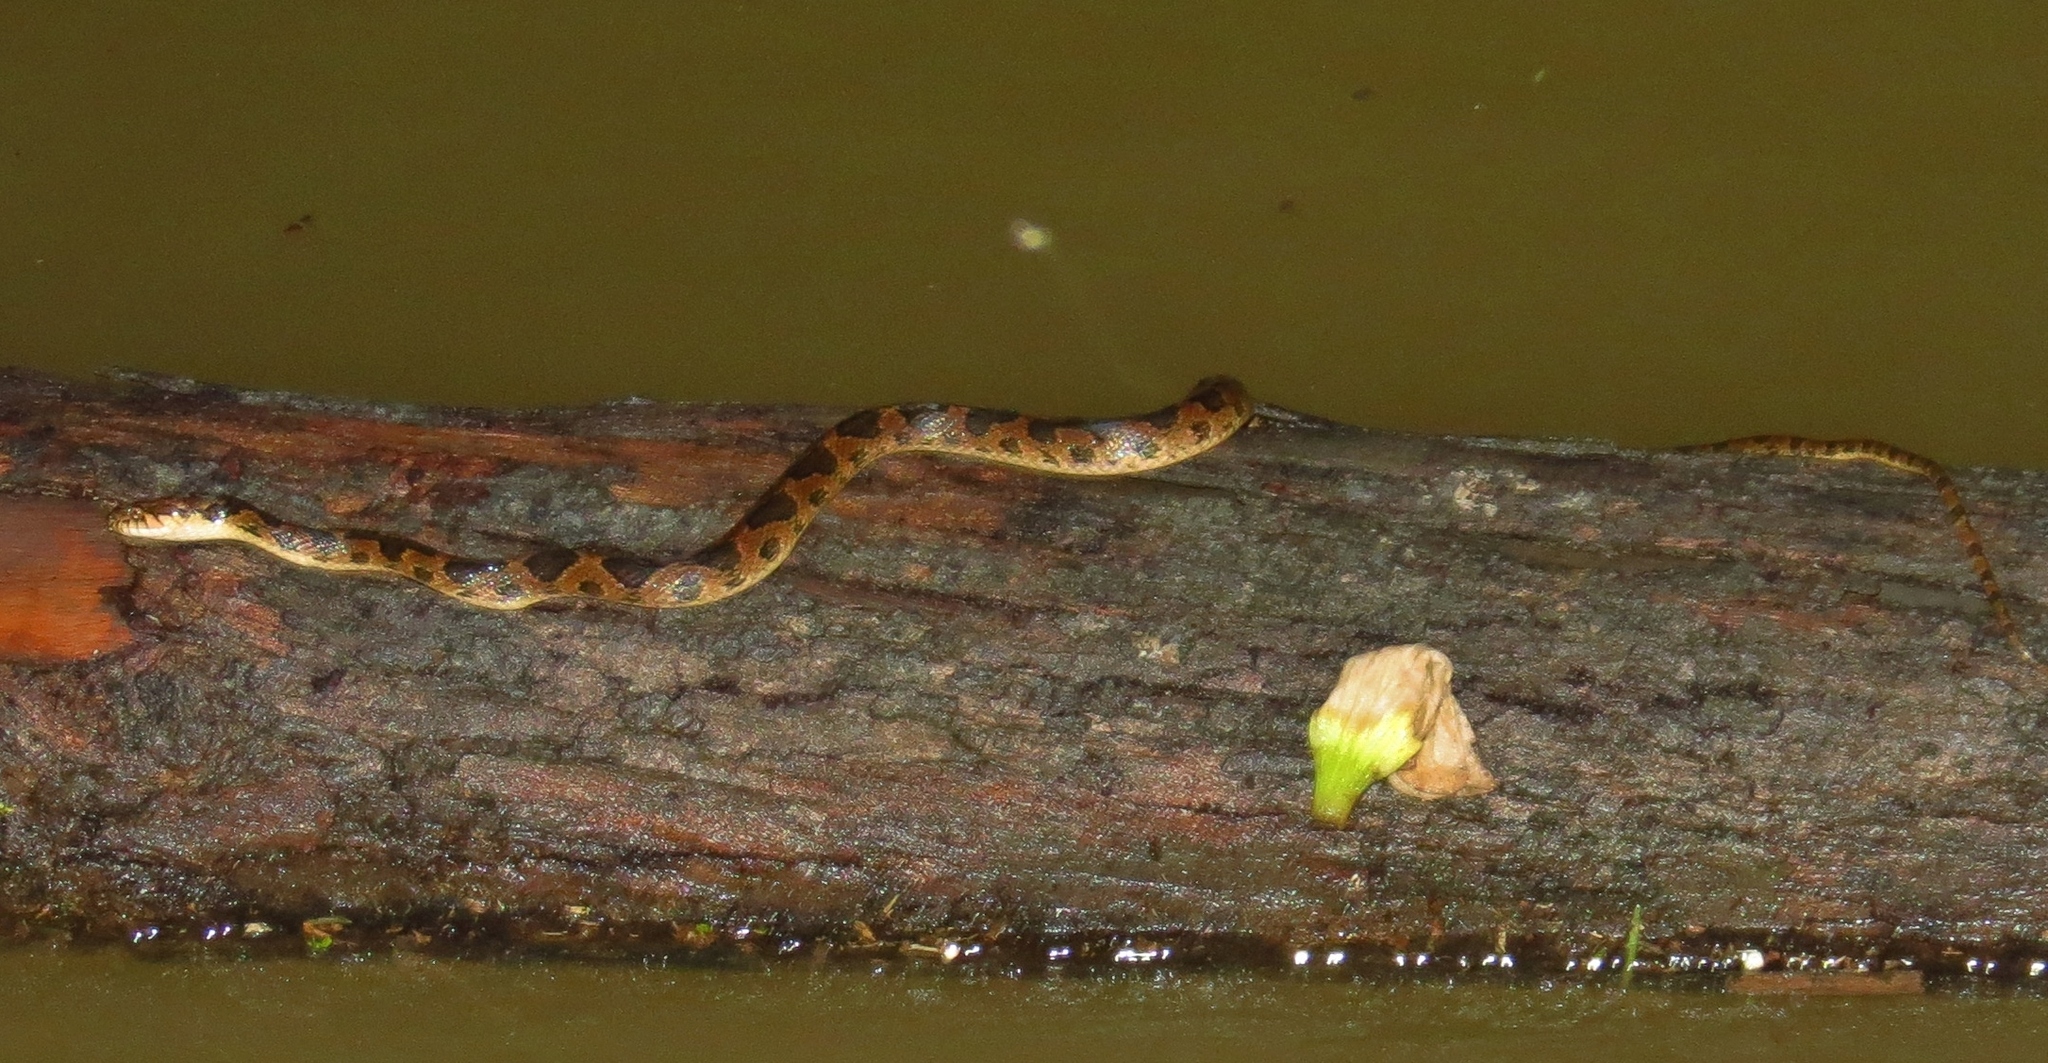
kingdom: Animalia
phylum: Chordata
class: Squamata
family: Colubridae
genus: Leptodeira
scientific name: Leptodeira rhombifera
